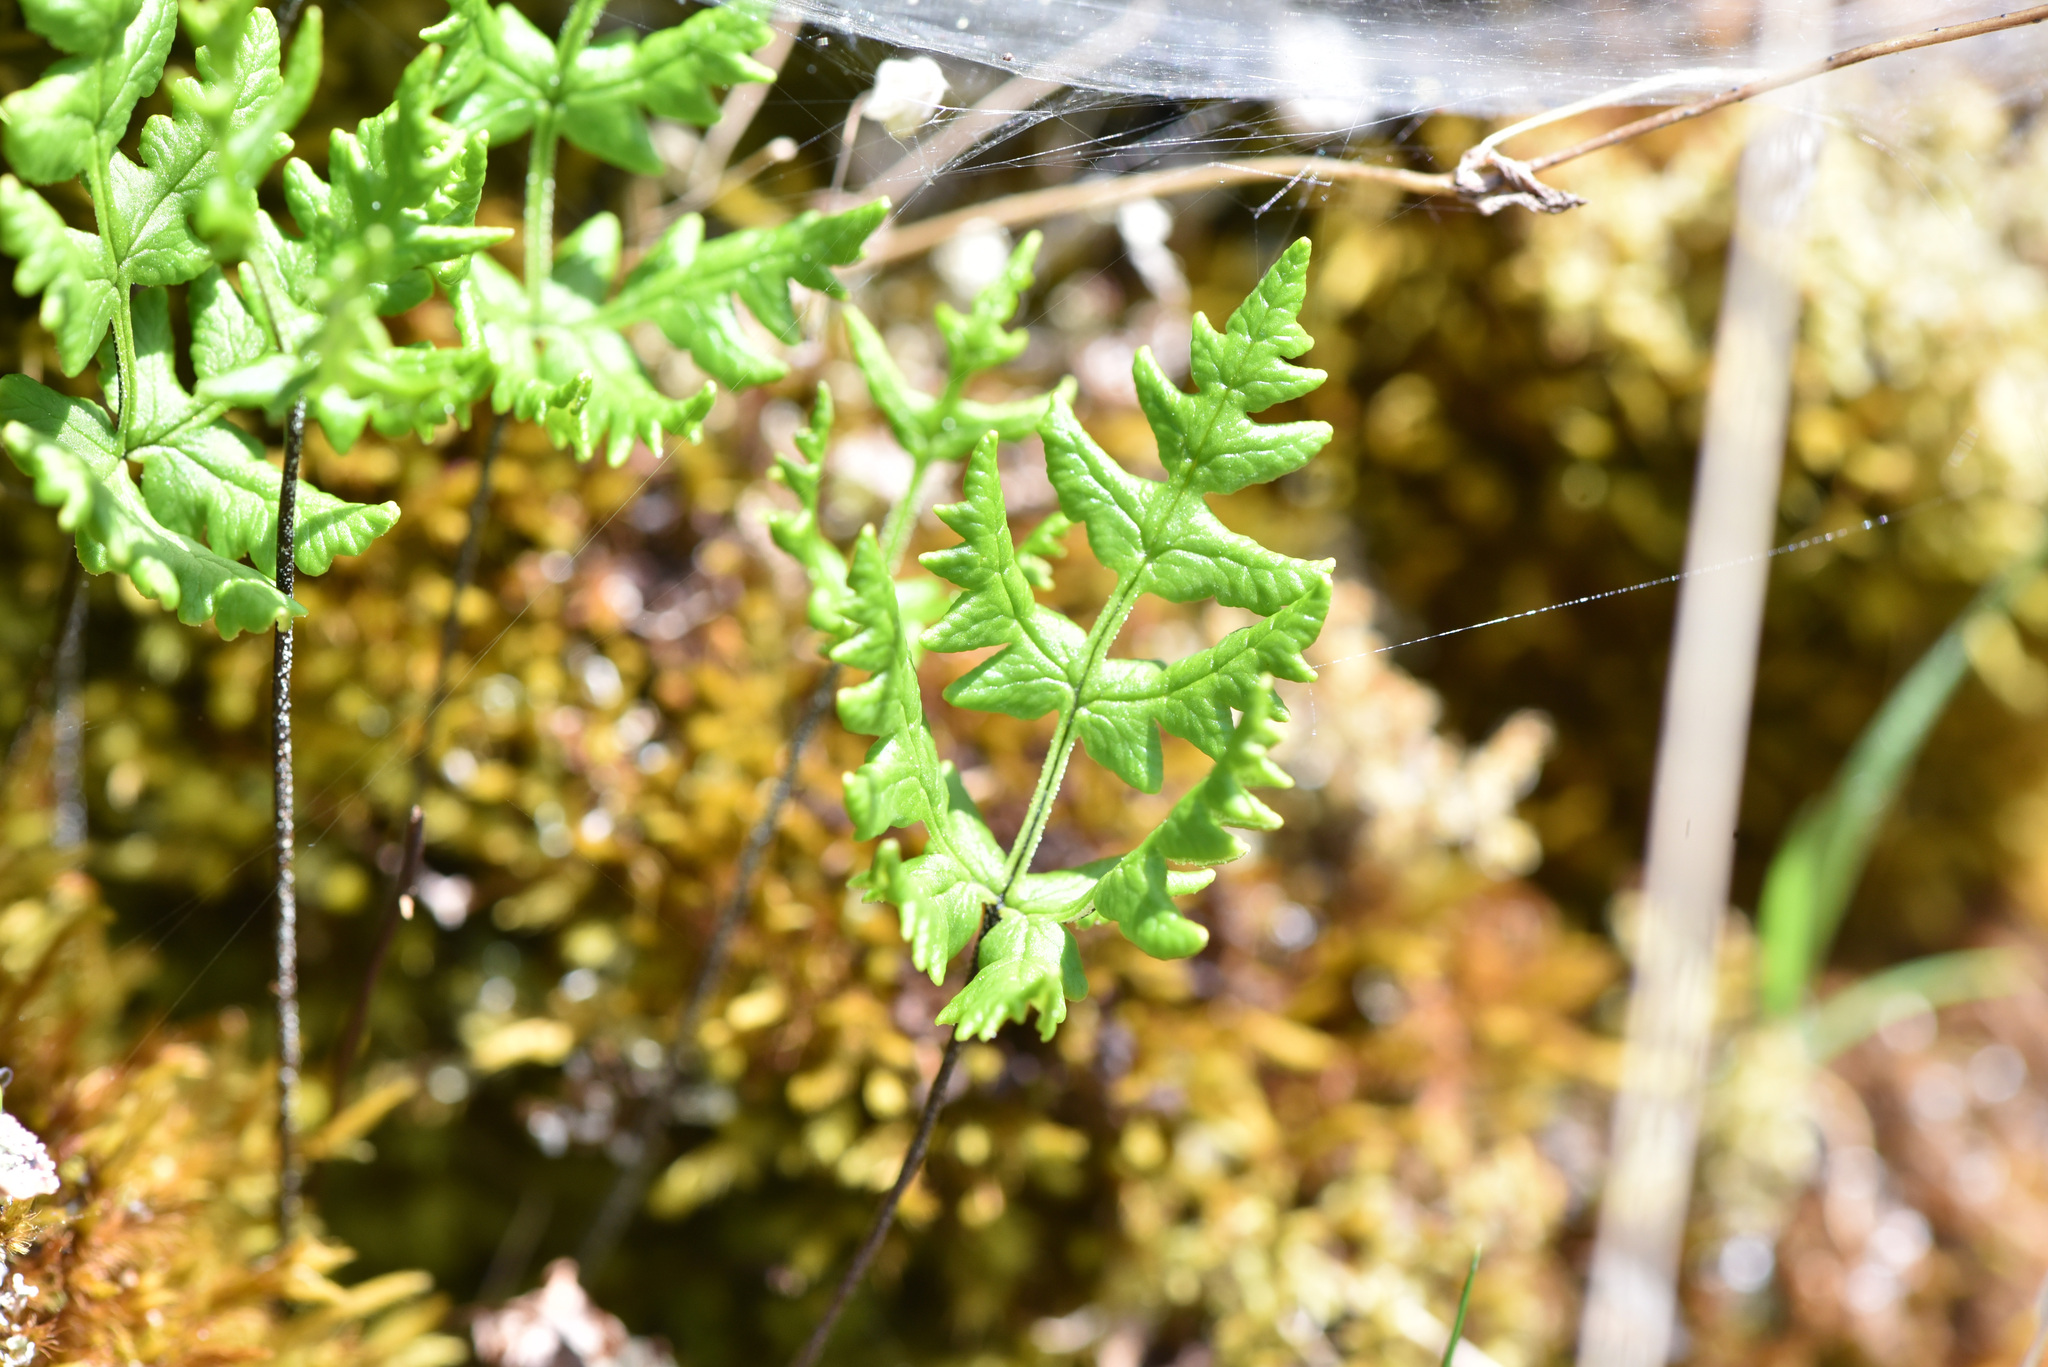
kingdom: Plantae
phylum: Tracheophyta
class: Polypodiopsida
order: Polypodiales
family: Pteridaceae
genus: Pentagramma
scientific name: Pentagramma triangularis
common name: Gold fern
